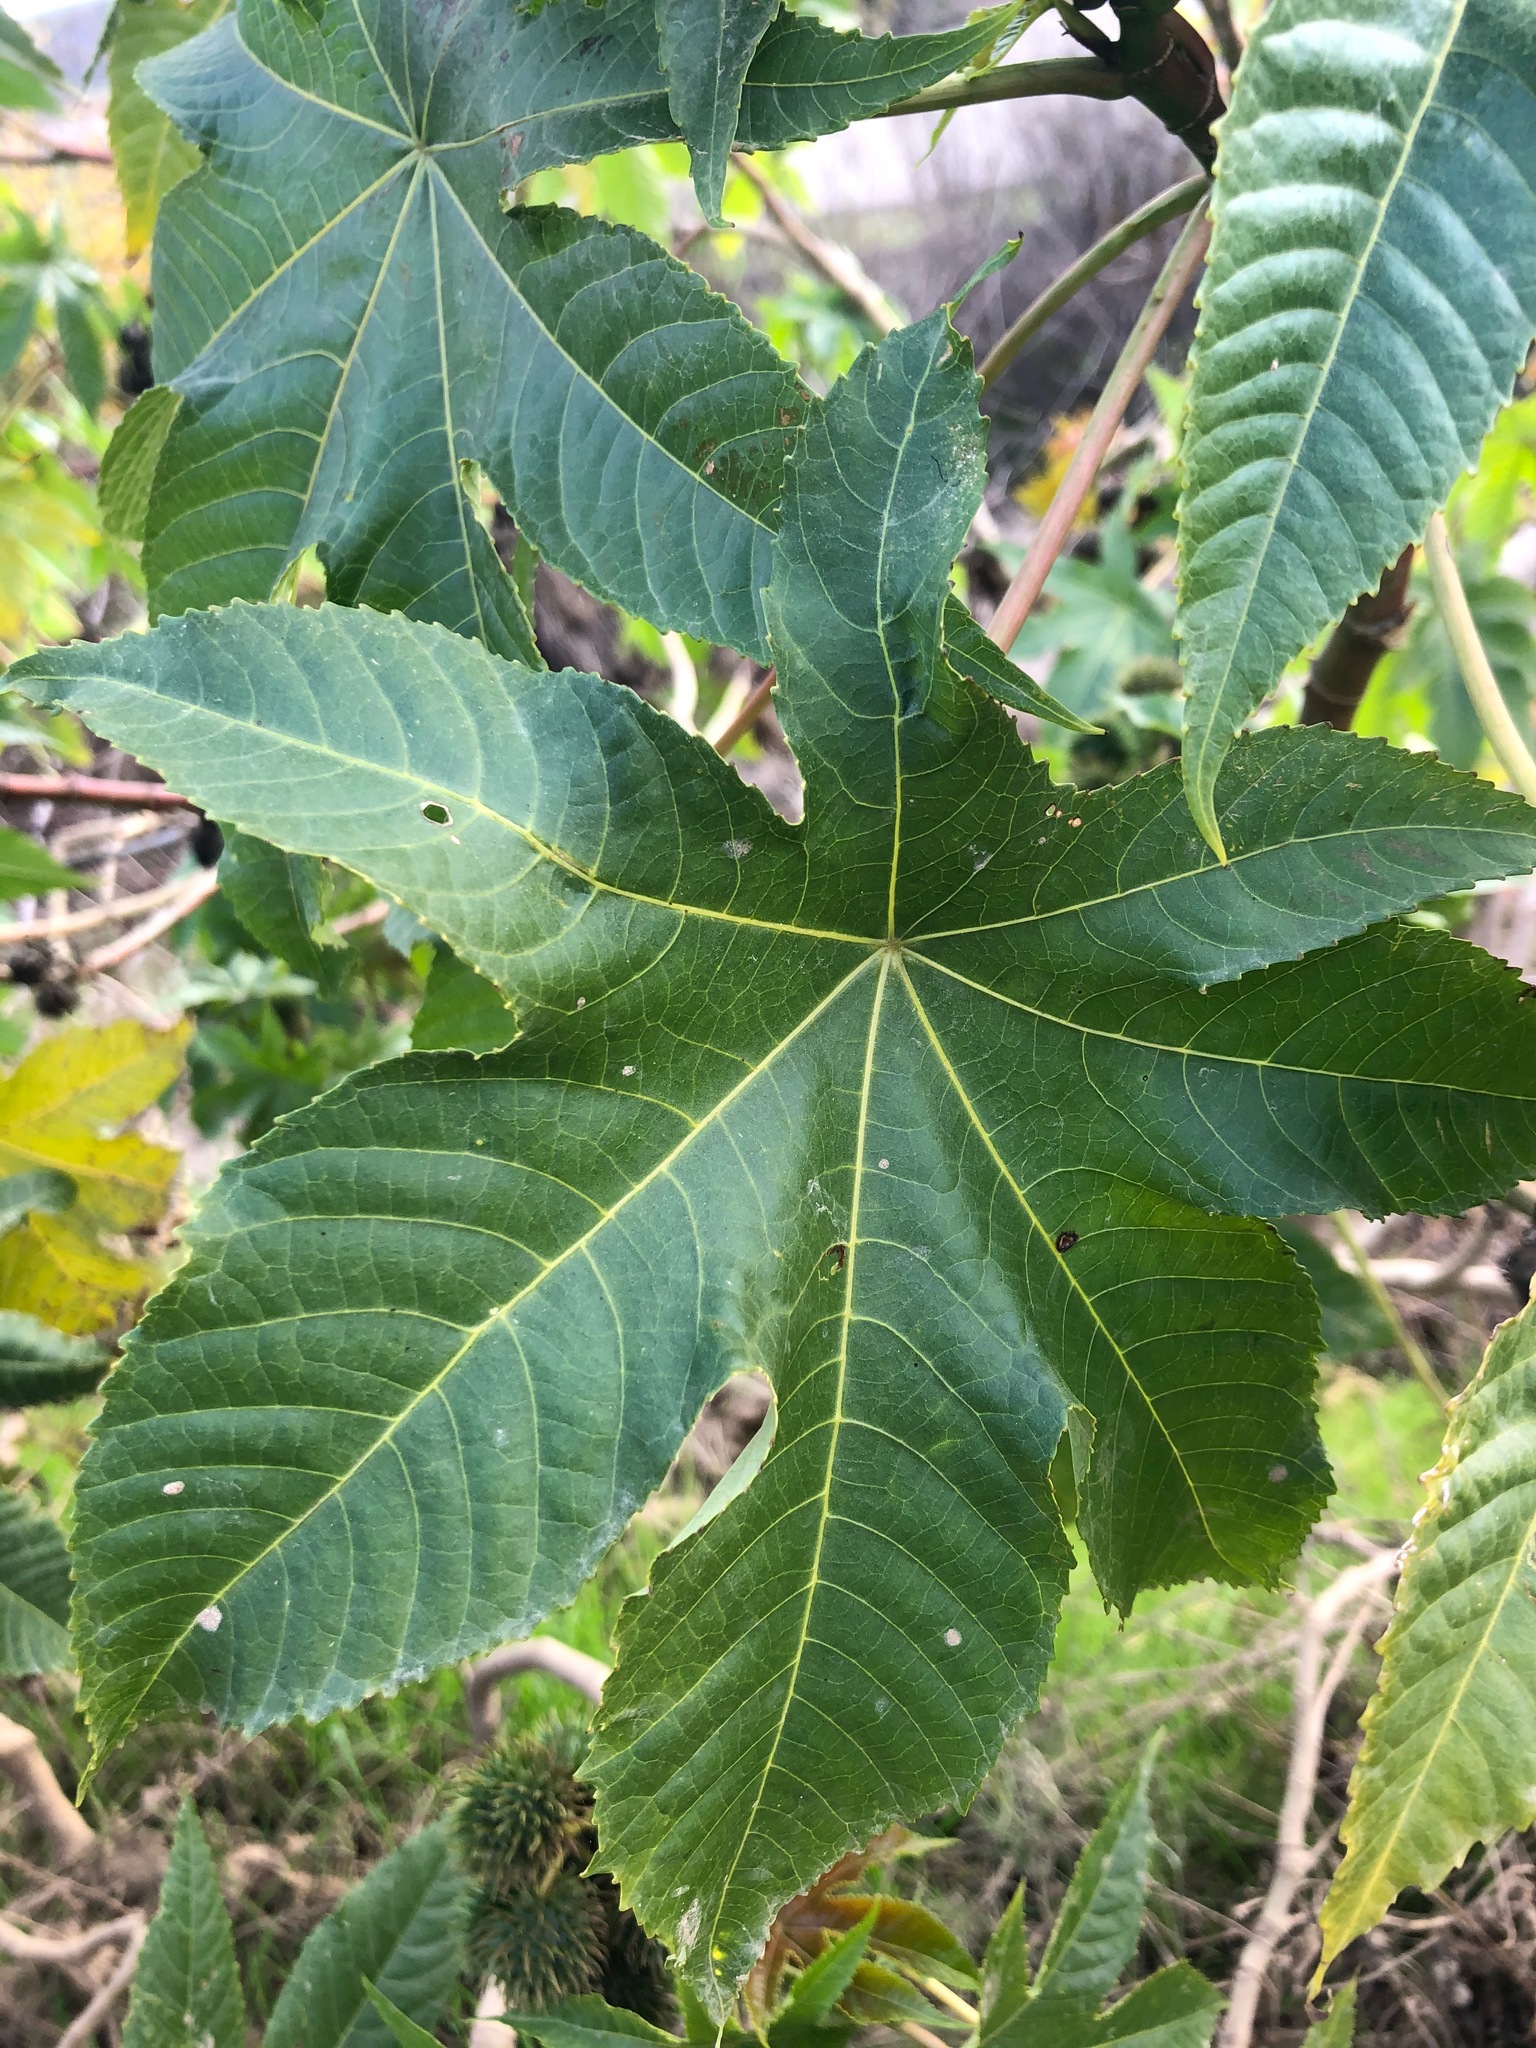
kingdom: Plantae
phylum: Tracheophyta
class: Magnoliopsida
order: Malpighiales
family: Euphorbiaceae
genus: Ricinus
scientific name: Ricinus communis
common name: Castor-oil-plant
